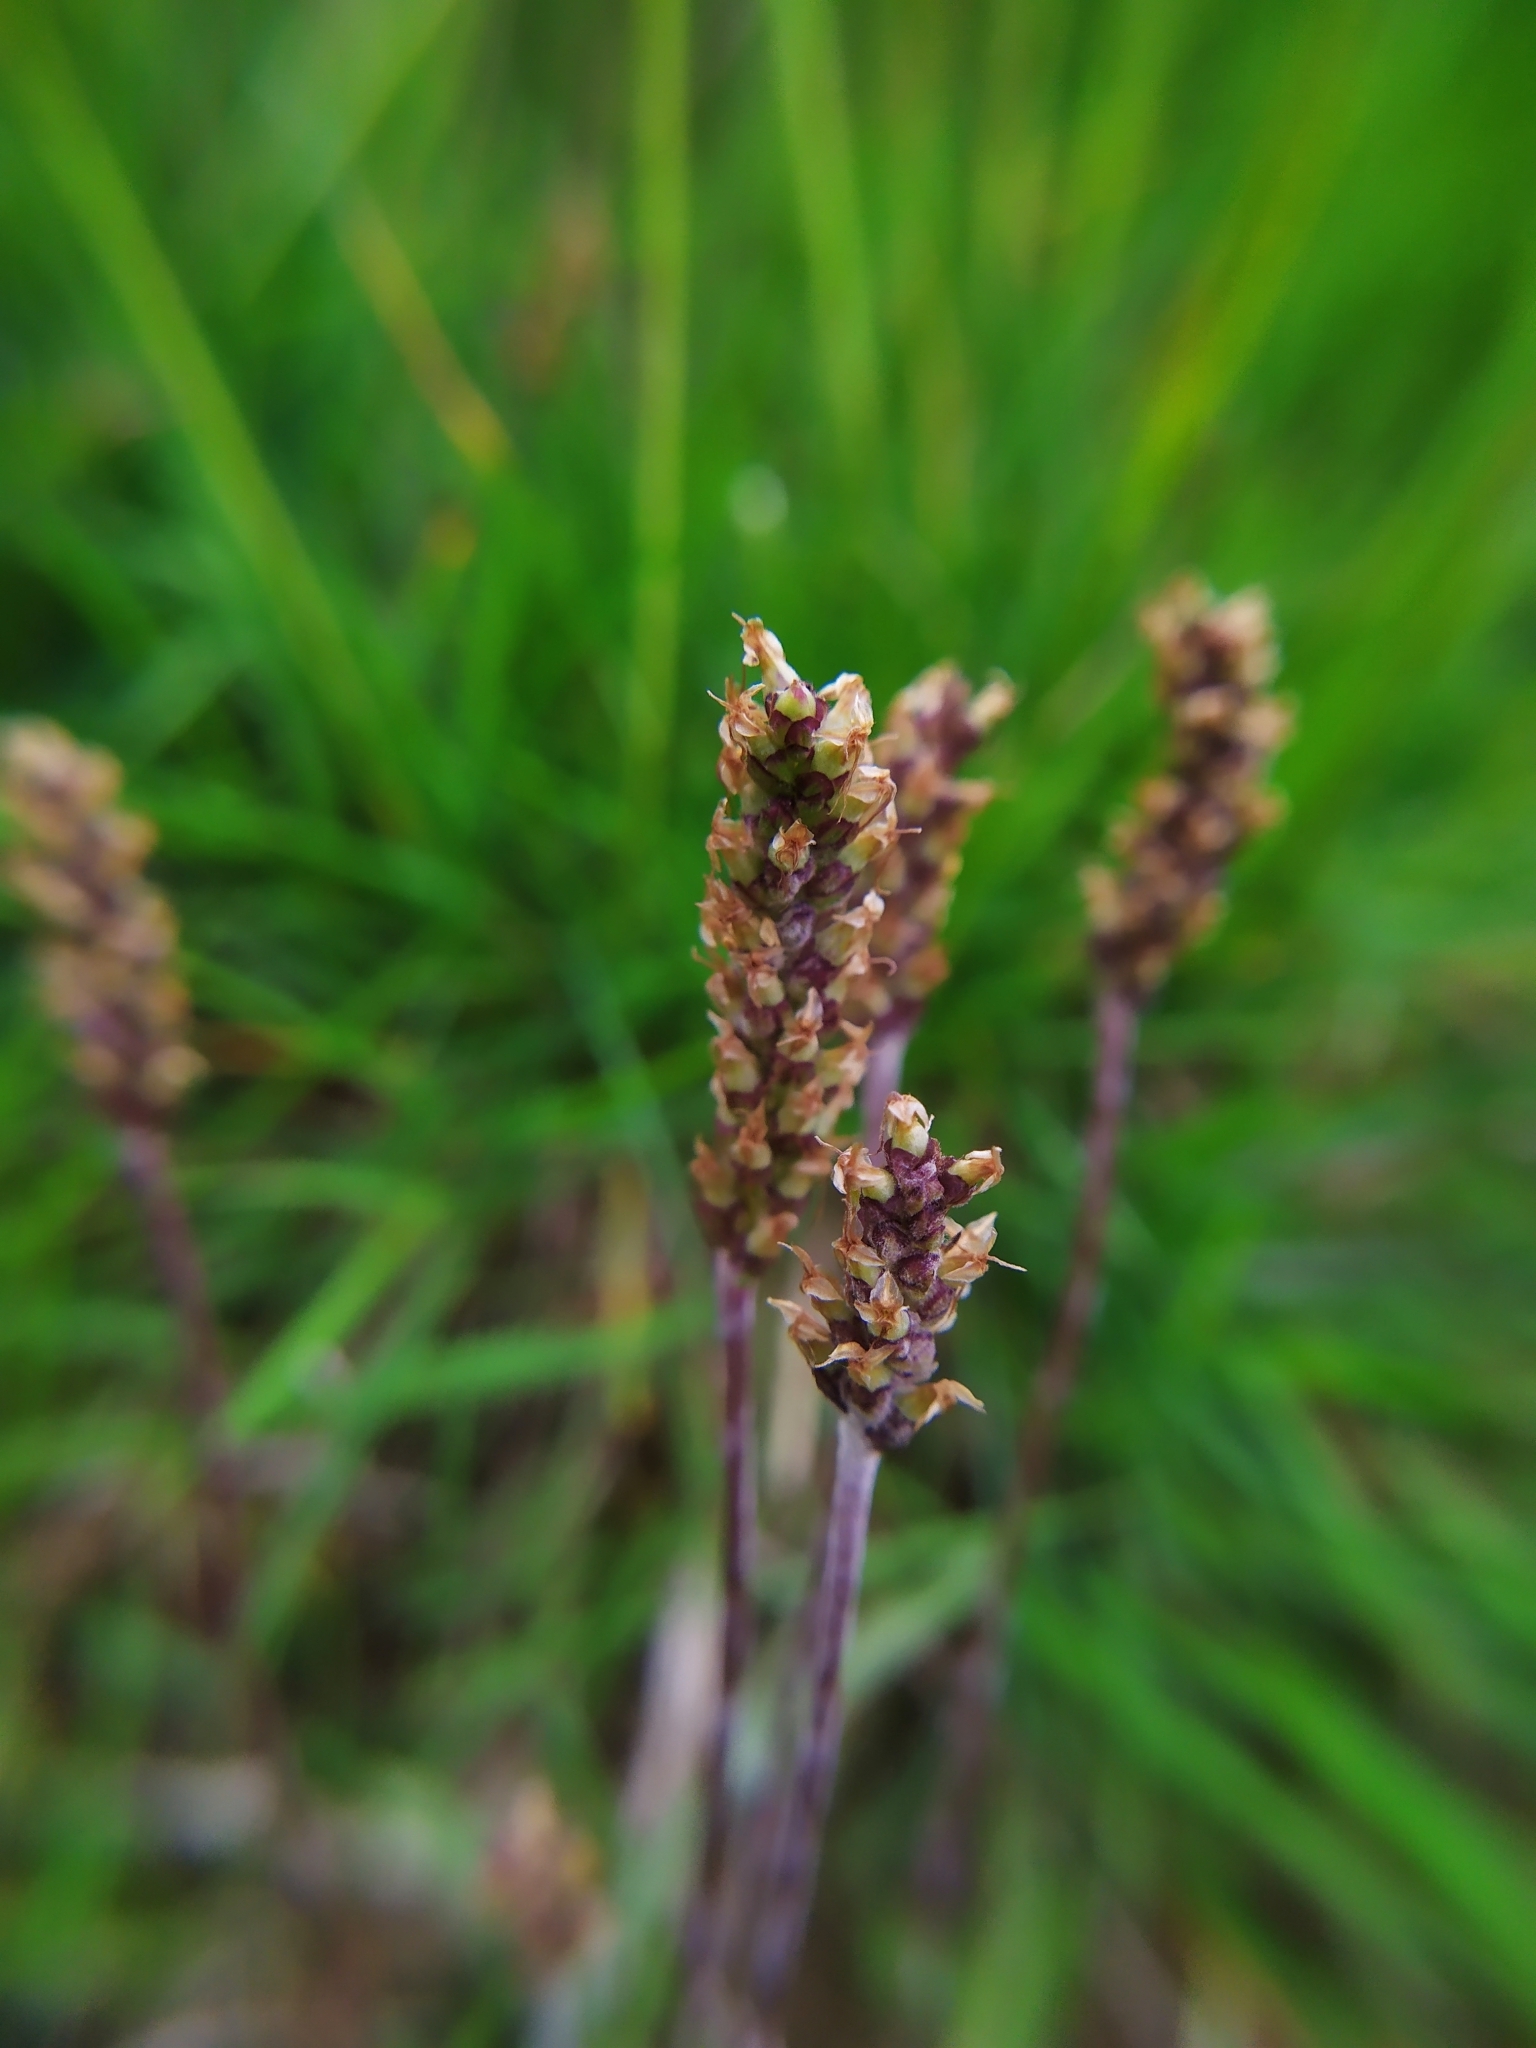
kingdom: Plantae
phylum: Tracheophyta
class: Magnoliopsida
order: Lamiales
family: Plantaginaceae
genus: Plantago
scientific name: Plantago alpina
